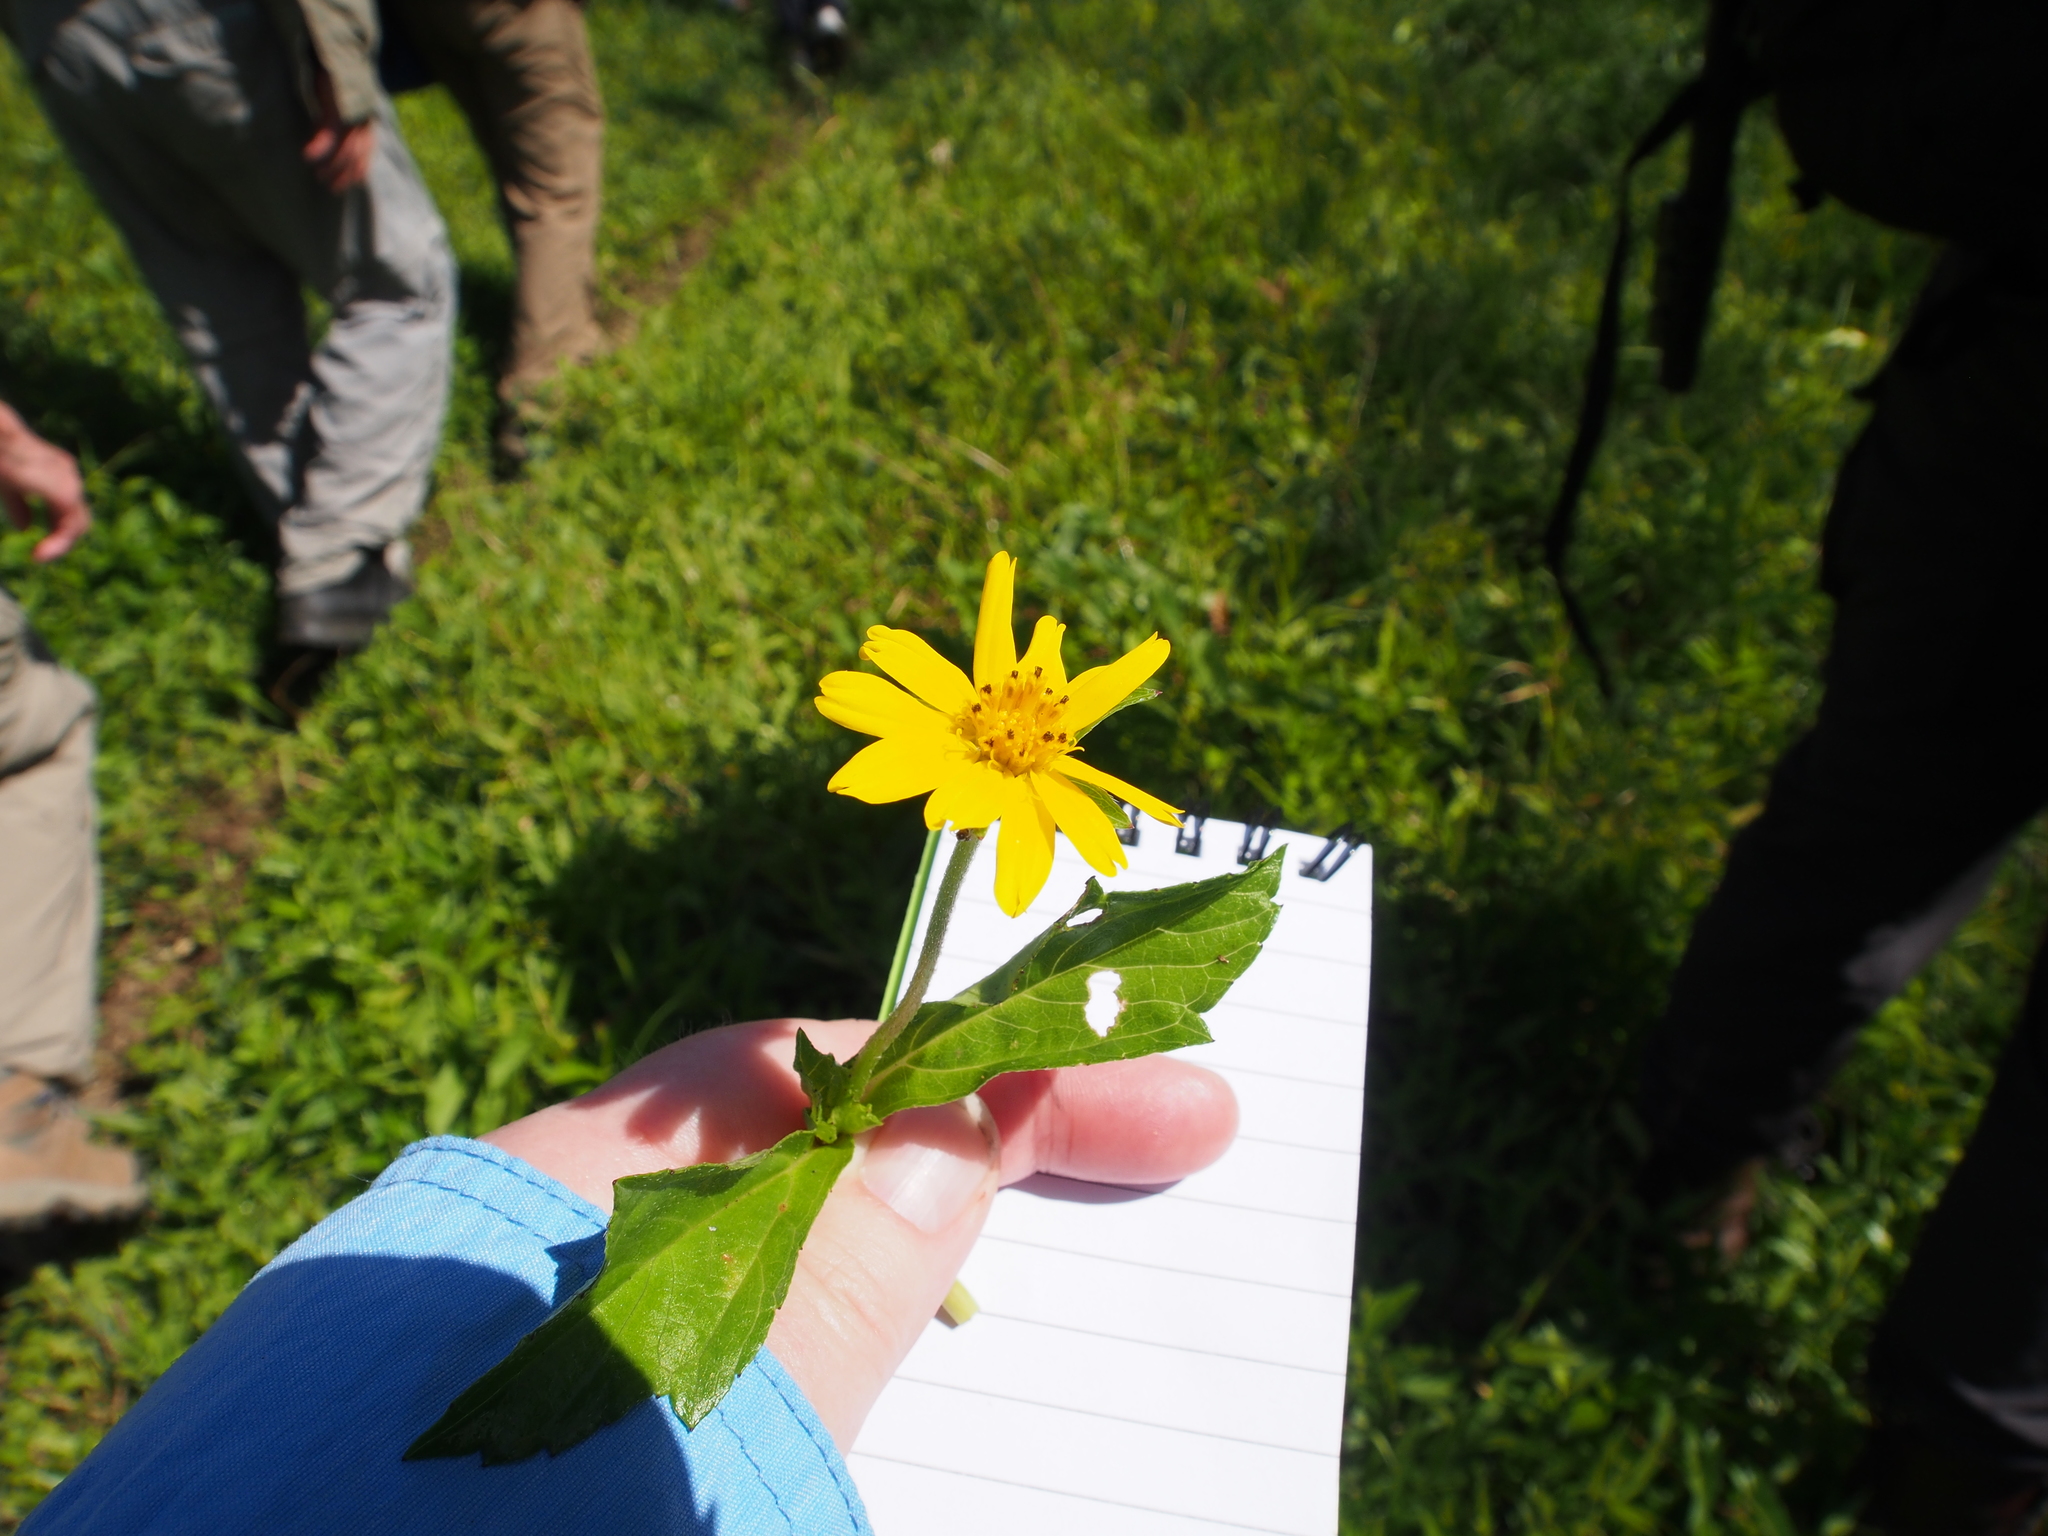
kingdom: Plantae
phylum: Tracheophyta
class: Magnoliopsida
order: Asterales
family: Asteraceae
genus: Sphagneticola
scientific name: Sphagneticola trilobata
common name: Bay biscayne creeping-oxeye
